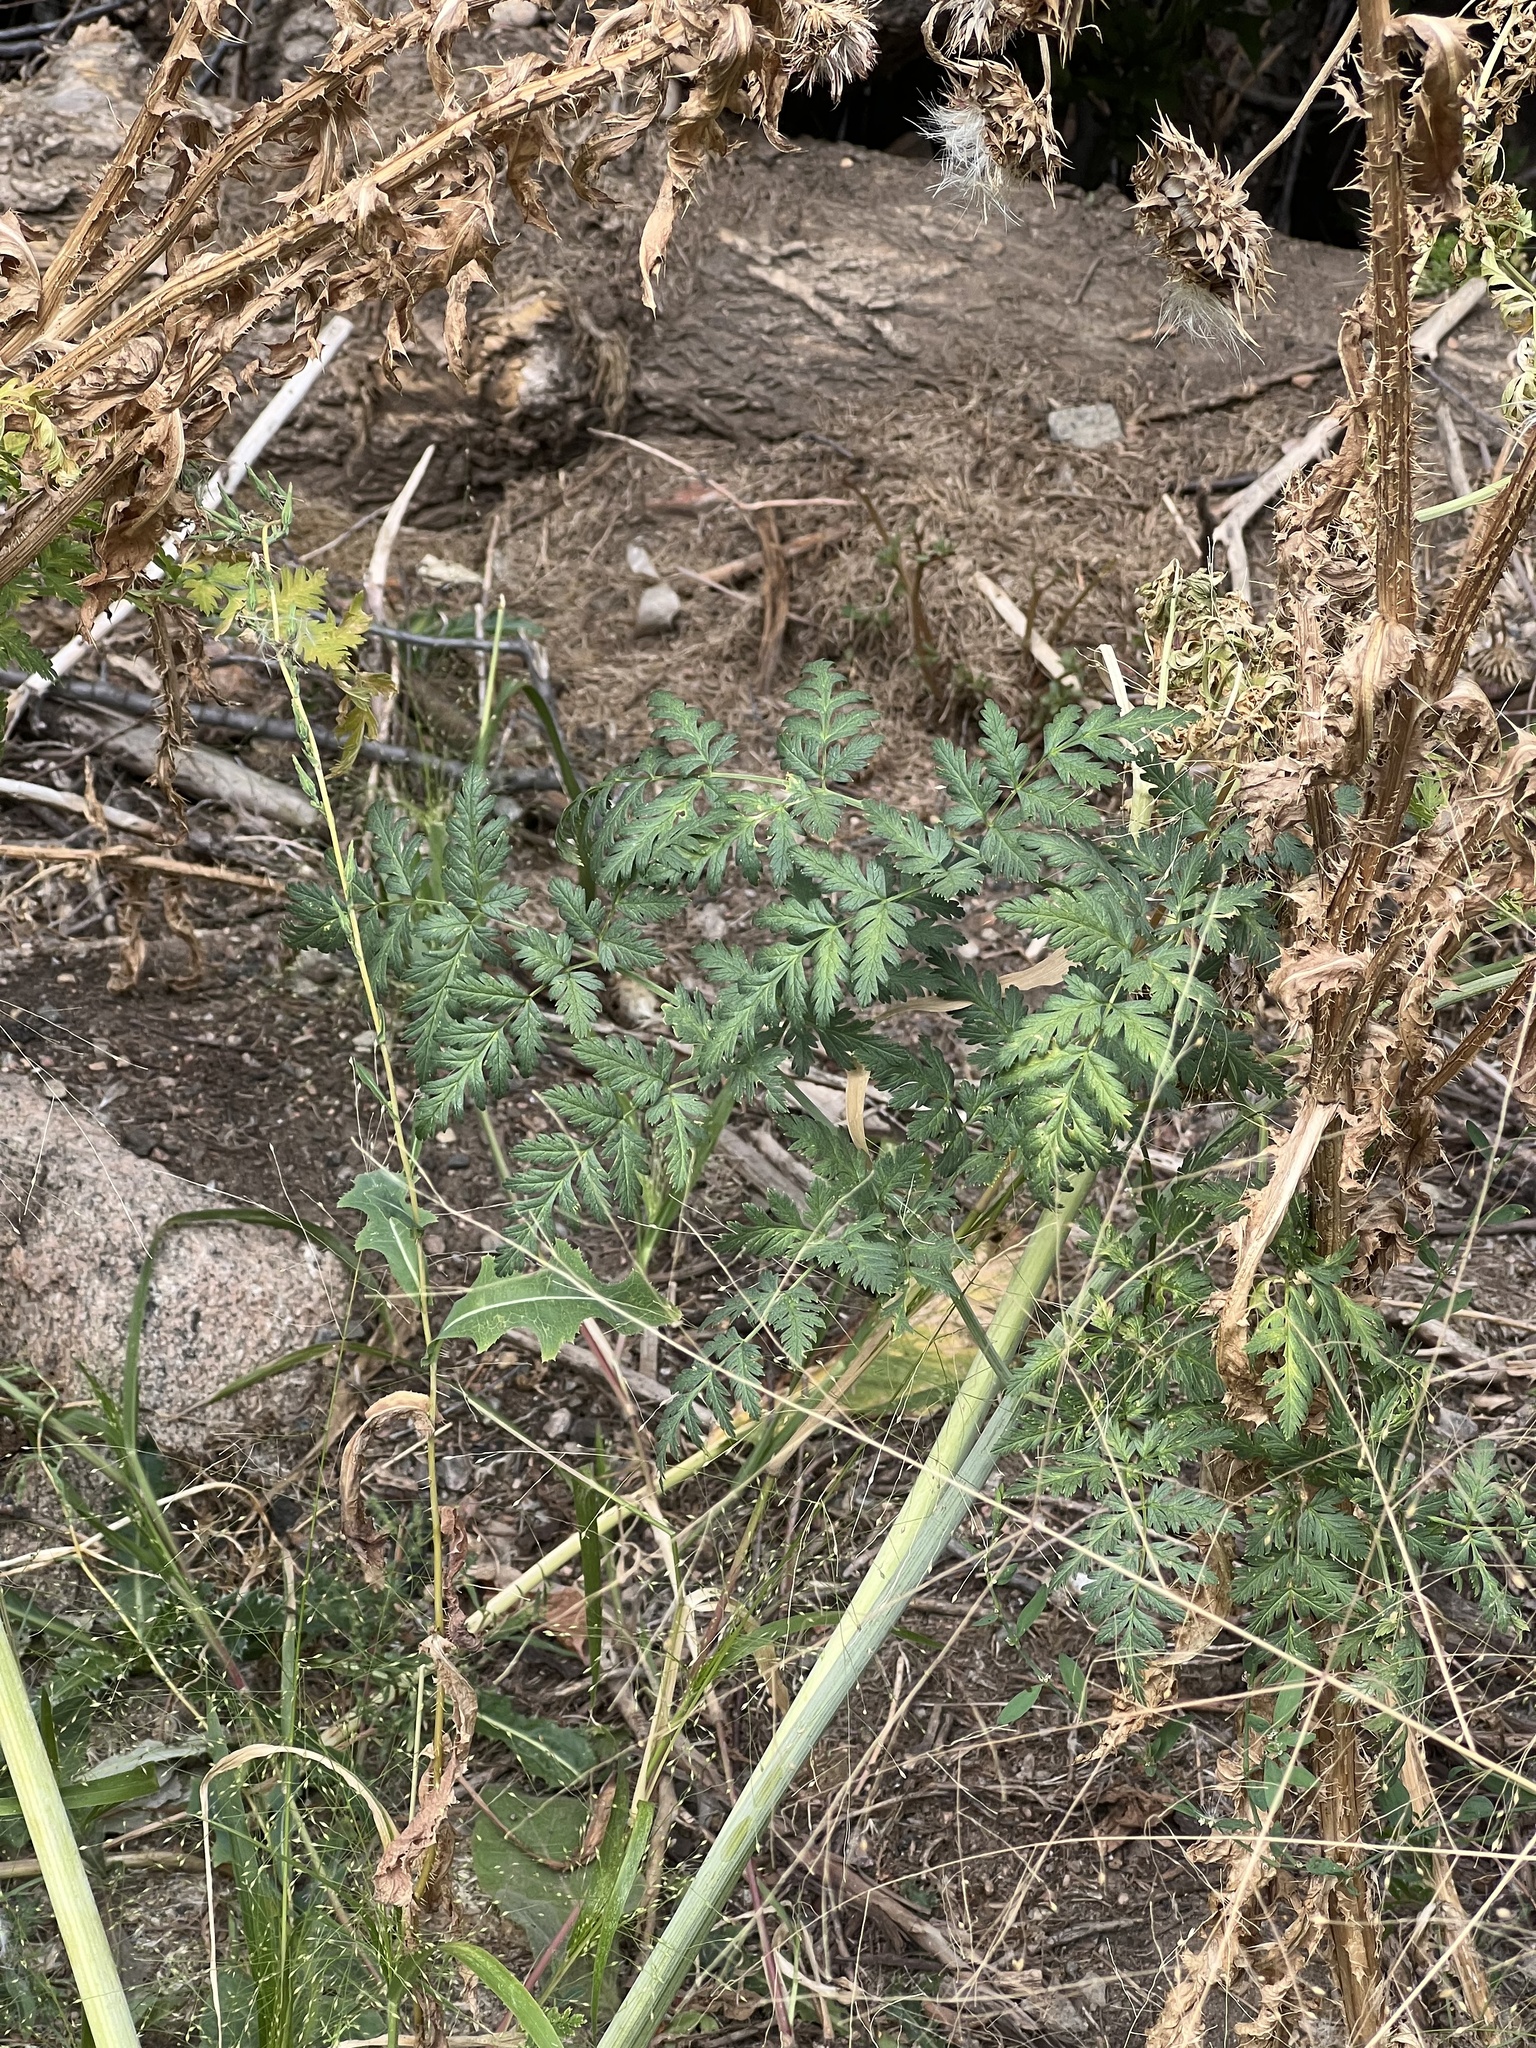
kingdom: Plantae
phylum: Tracheophyta
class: Magnoliopsida
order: Apiales
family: Apiaceae
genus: Conium
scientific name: Conium maculatum
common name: Hemlock
